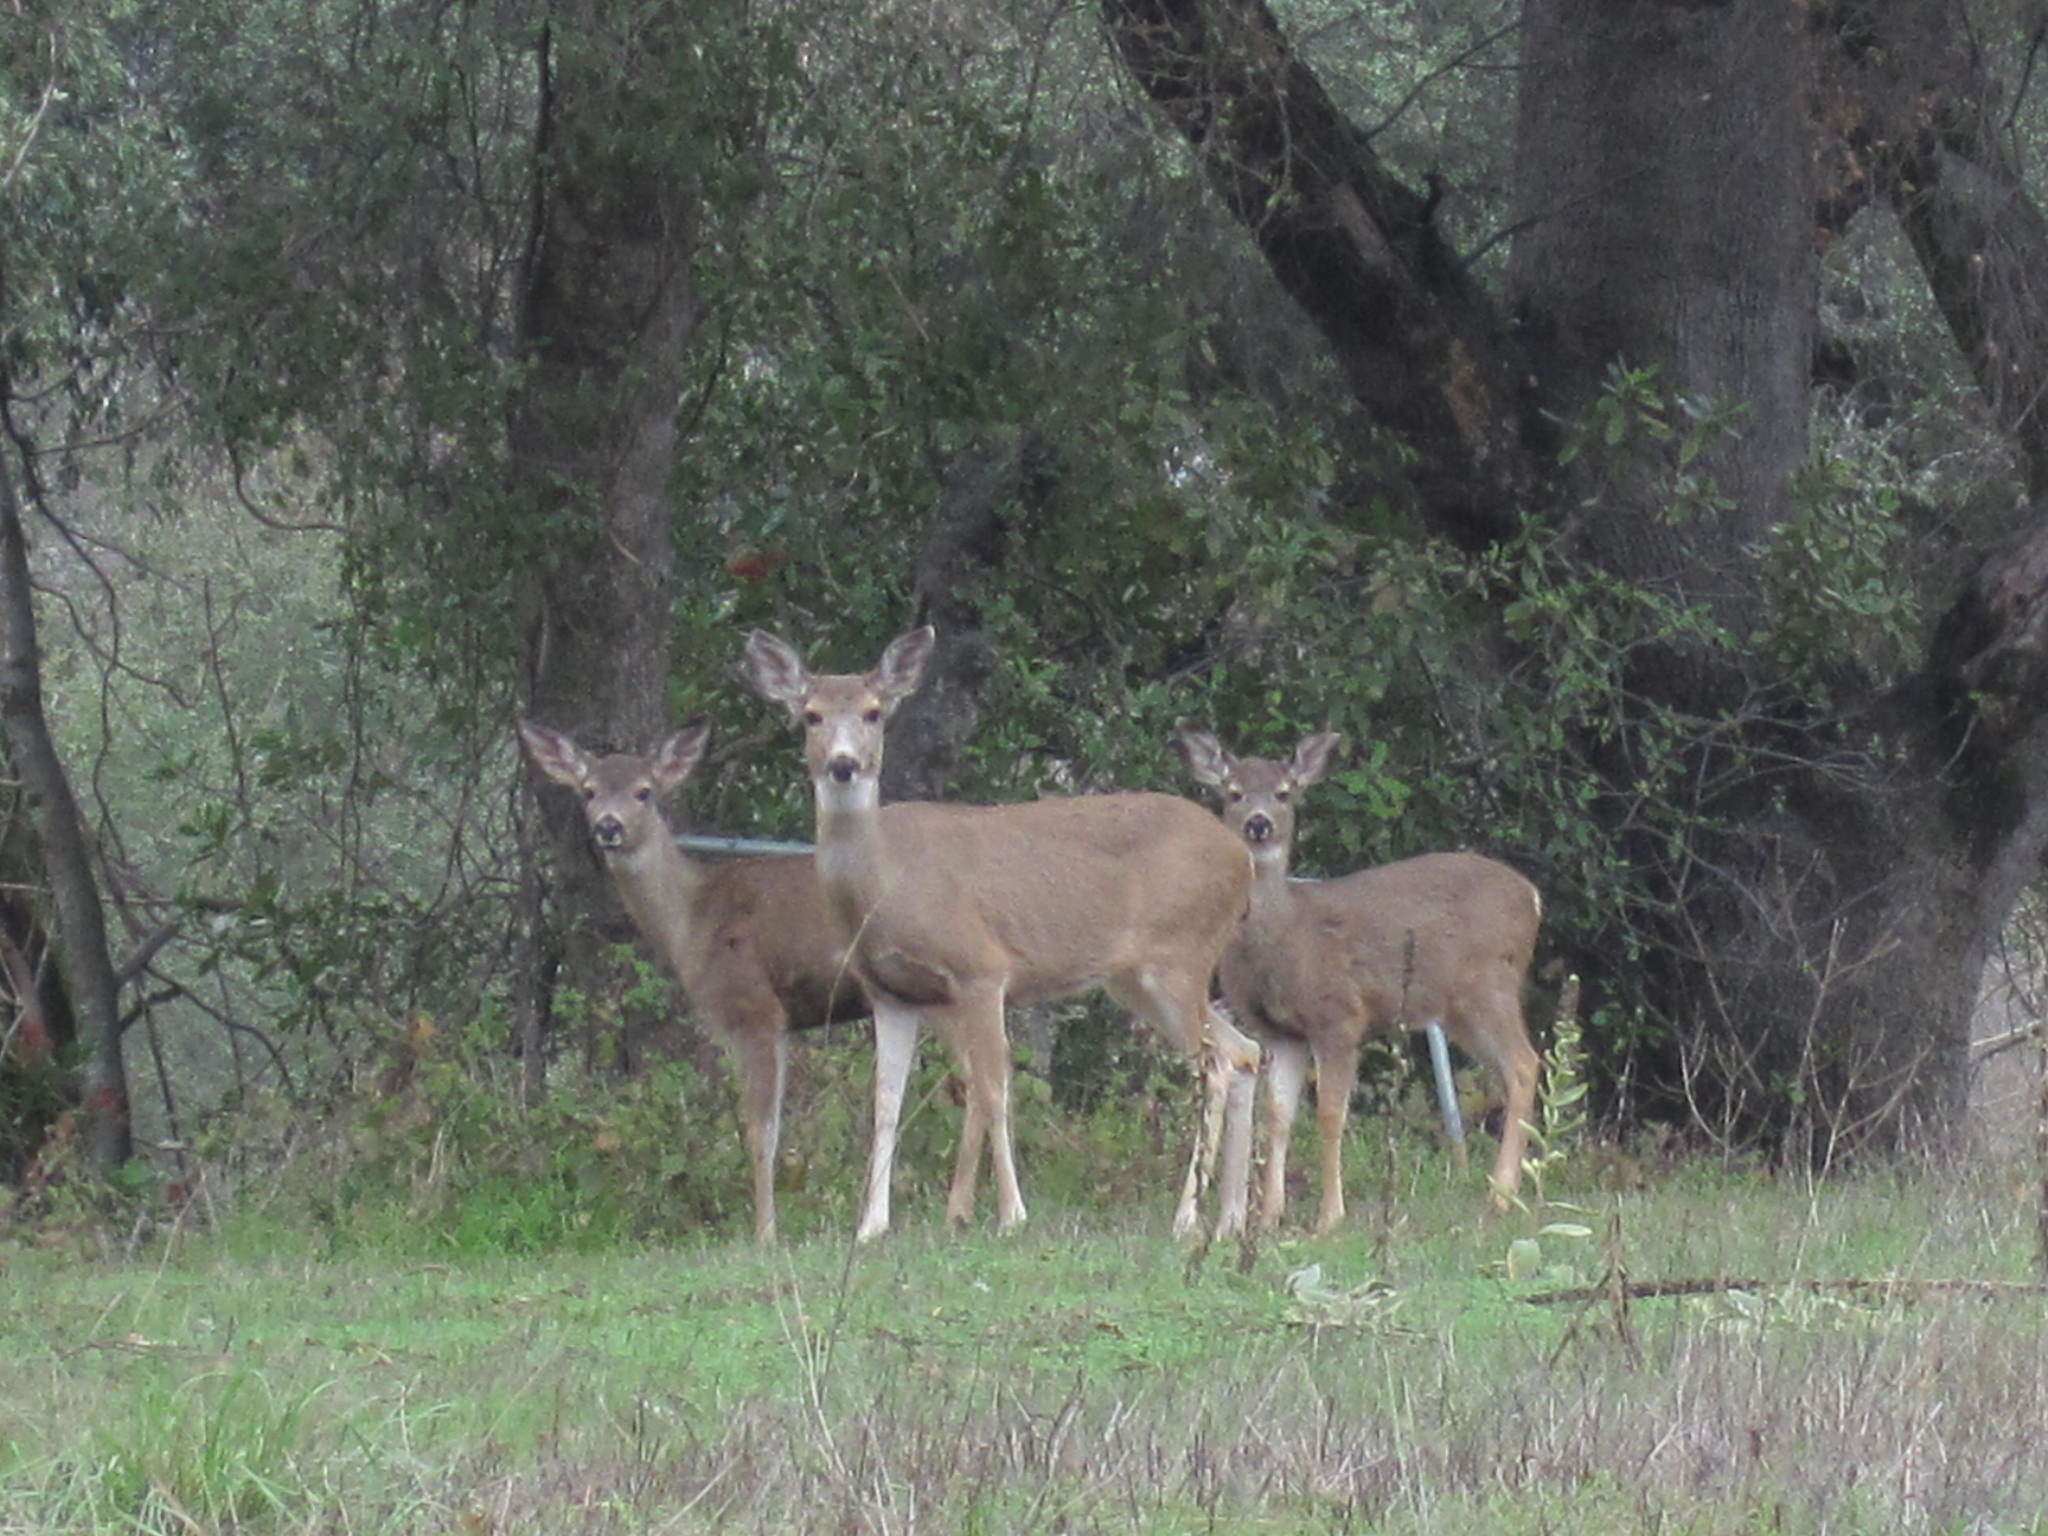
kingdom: Animalia
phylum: Chordata
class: Mammalia
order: Artiodactyla
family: Cervidae
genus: Odocoileus
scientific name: Odocoileus hemionus
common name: Mule deer
